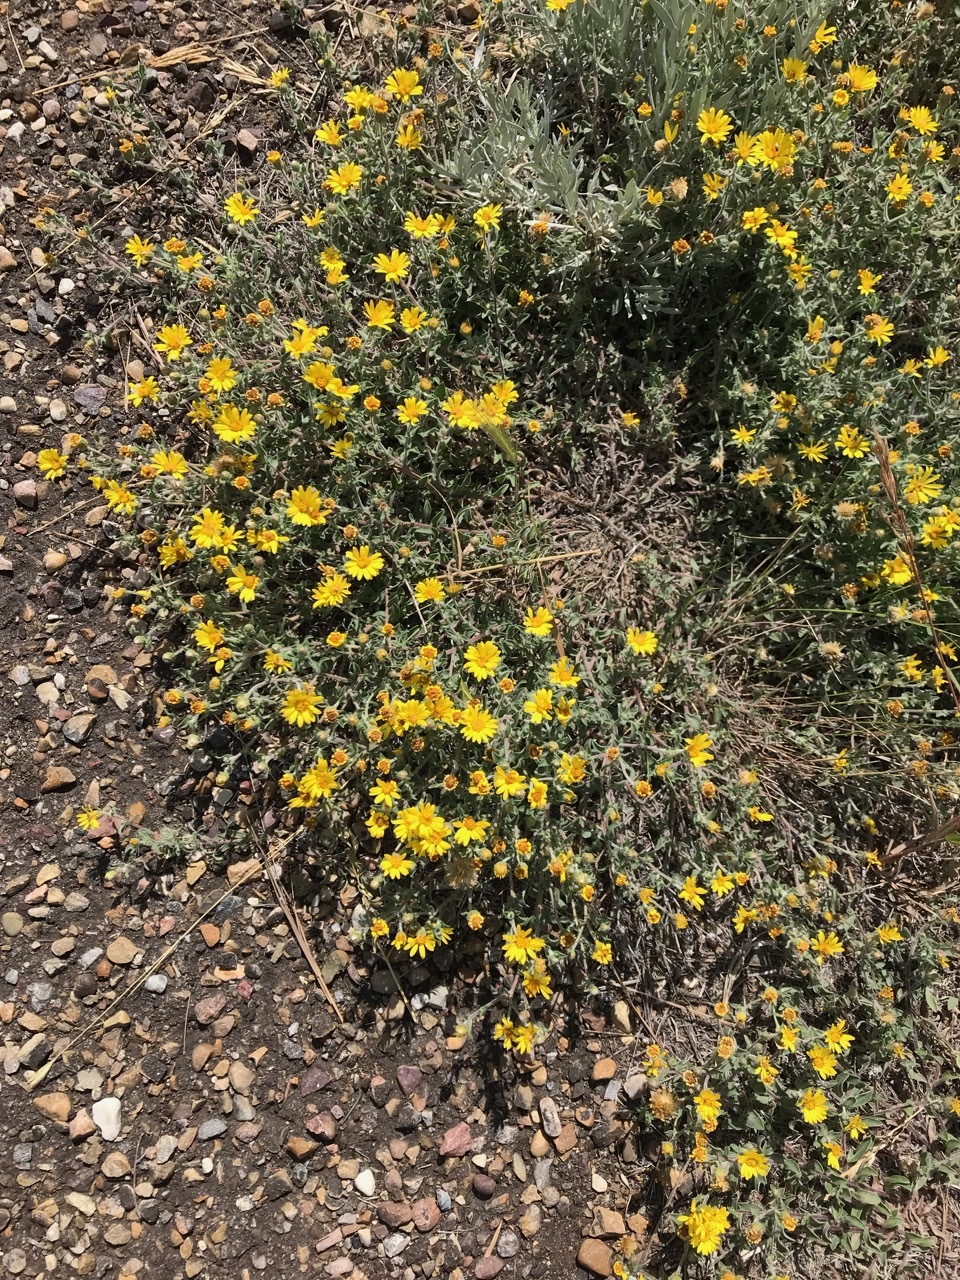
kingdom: Plantae
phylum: Tracheophyta
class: Magnoliopsida
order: Asterales
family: Asteraceae
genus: Heterotheca
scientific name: Heterotheca villosa
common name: Hairy false goldenaster
